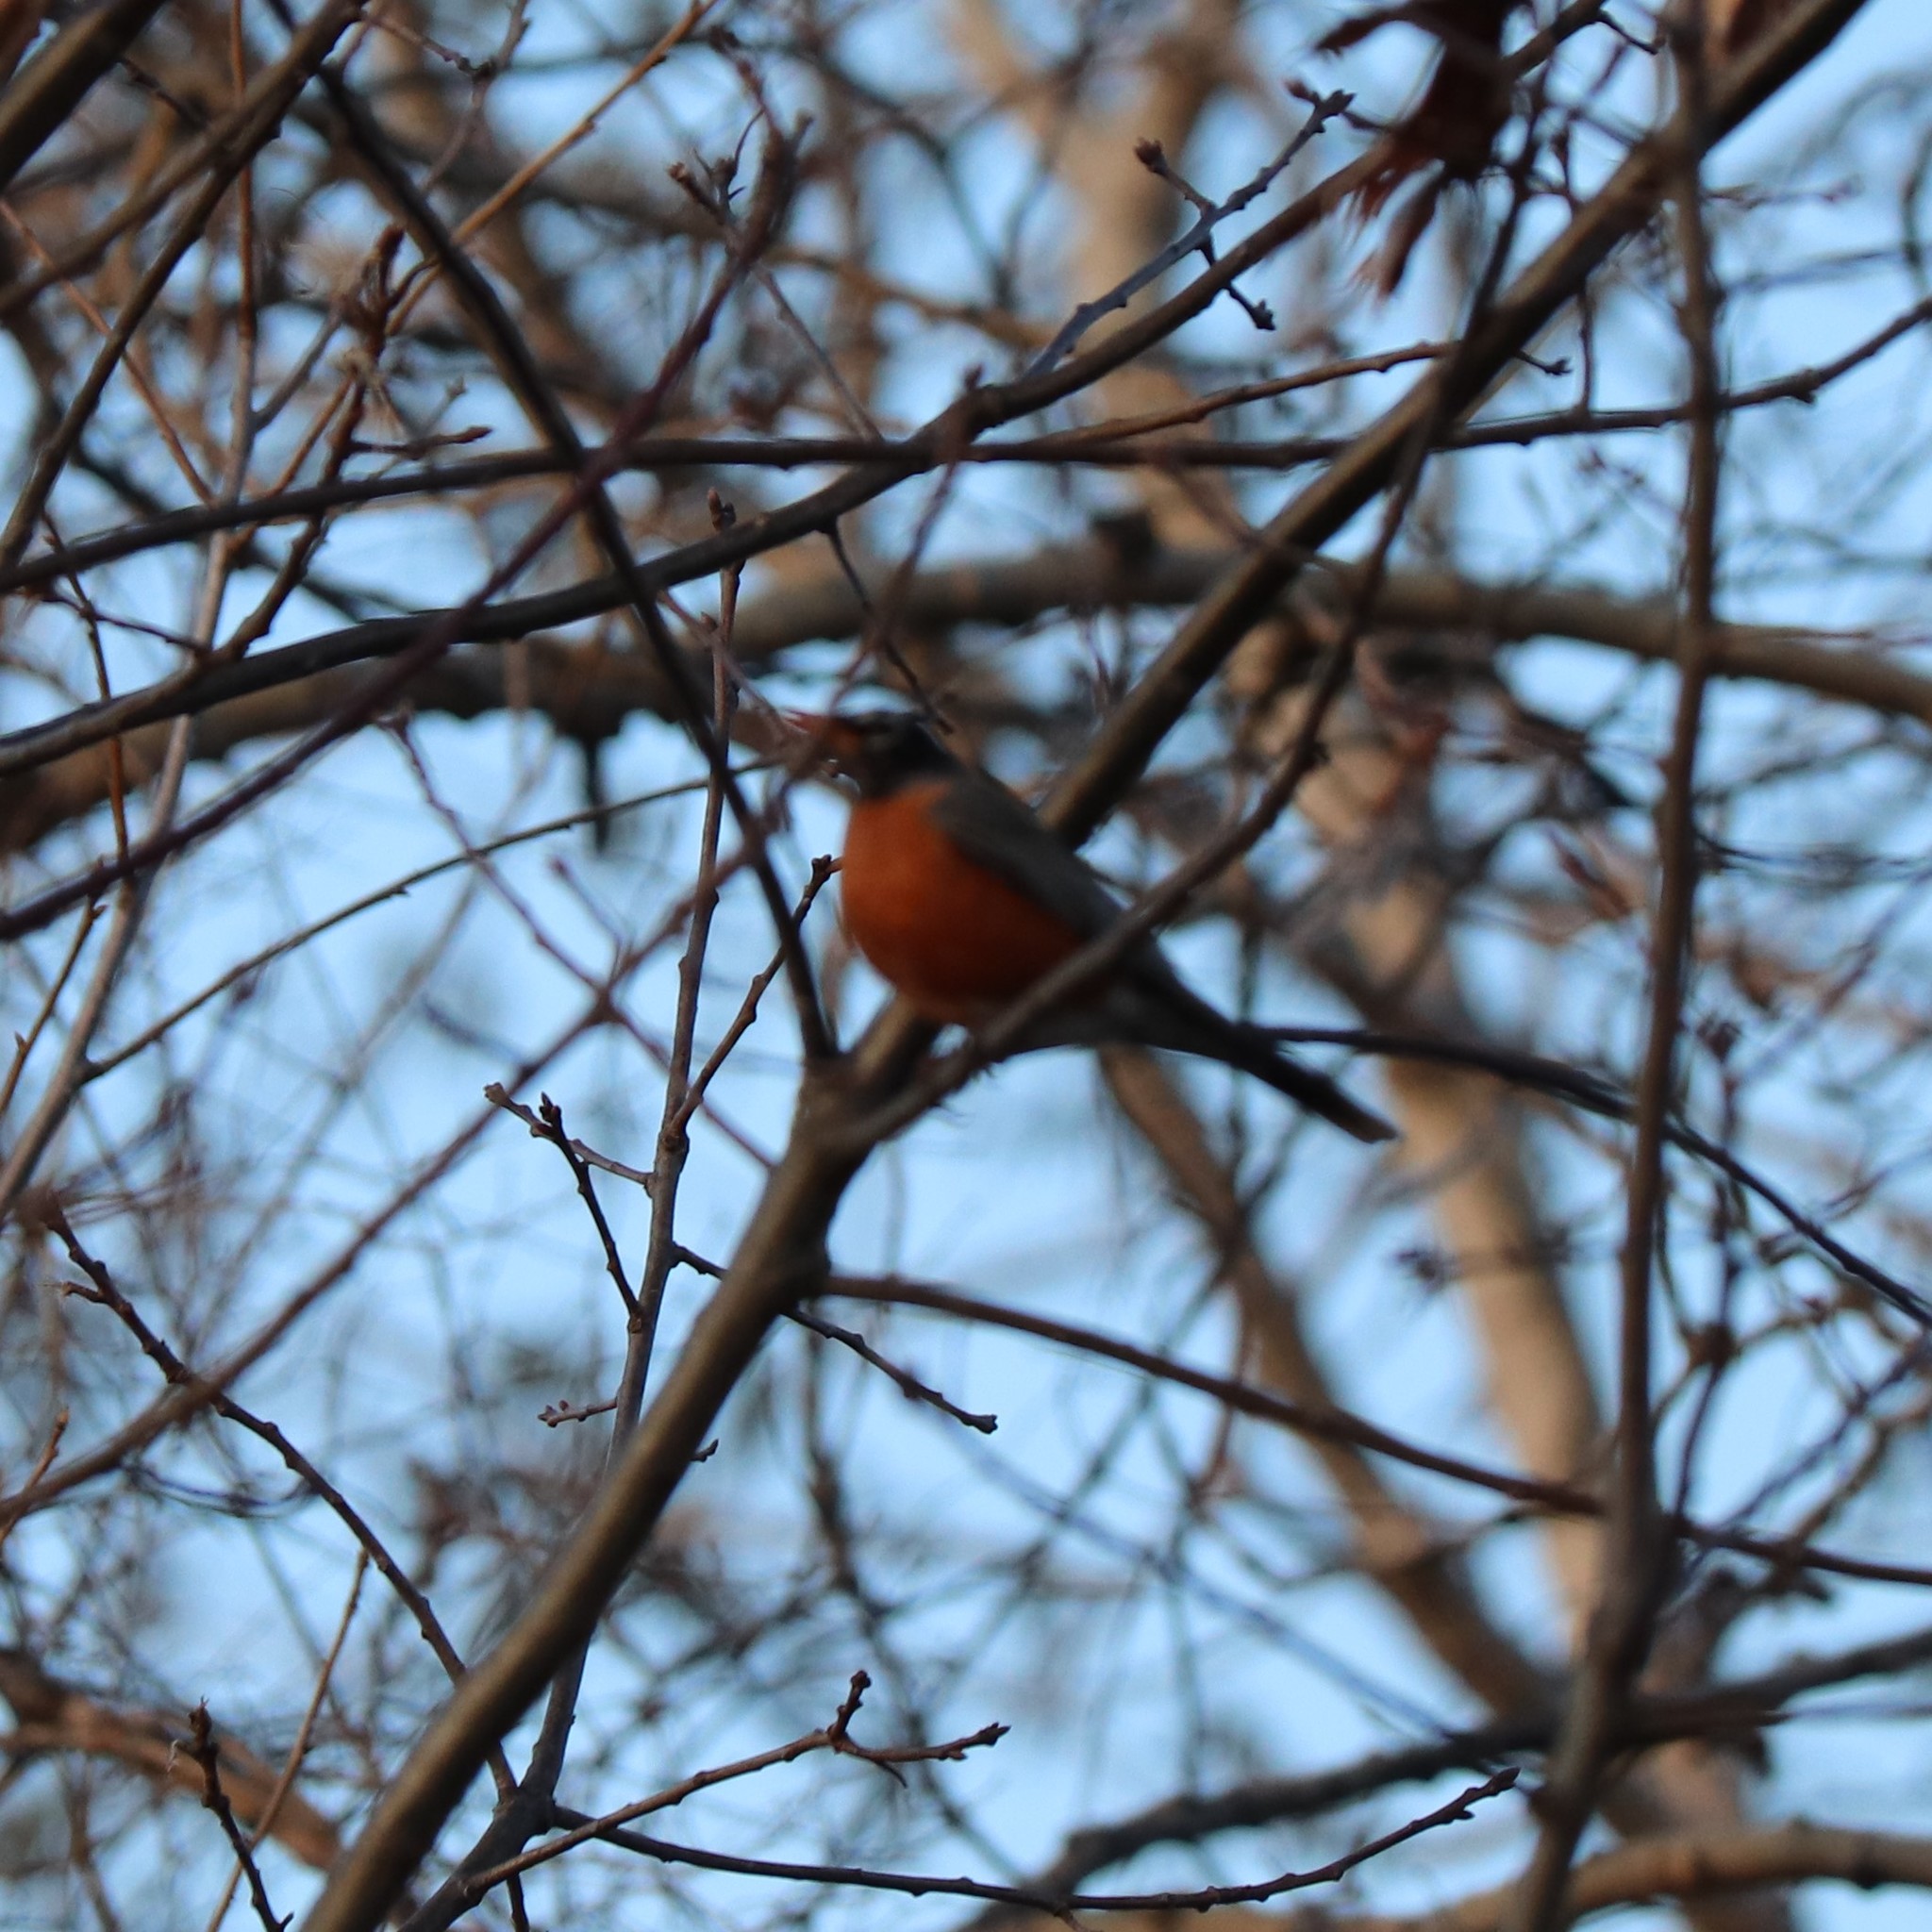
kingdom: Animalia
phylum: Chordata
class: Aves
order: Passeriformes
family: Turdidae
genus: Turdus
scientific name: Turdus migratorius
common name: American robin
